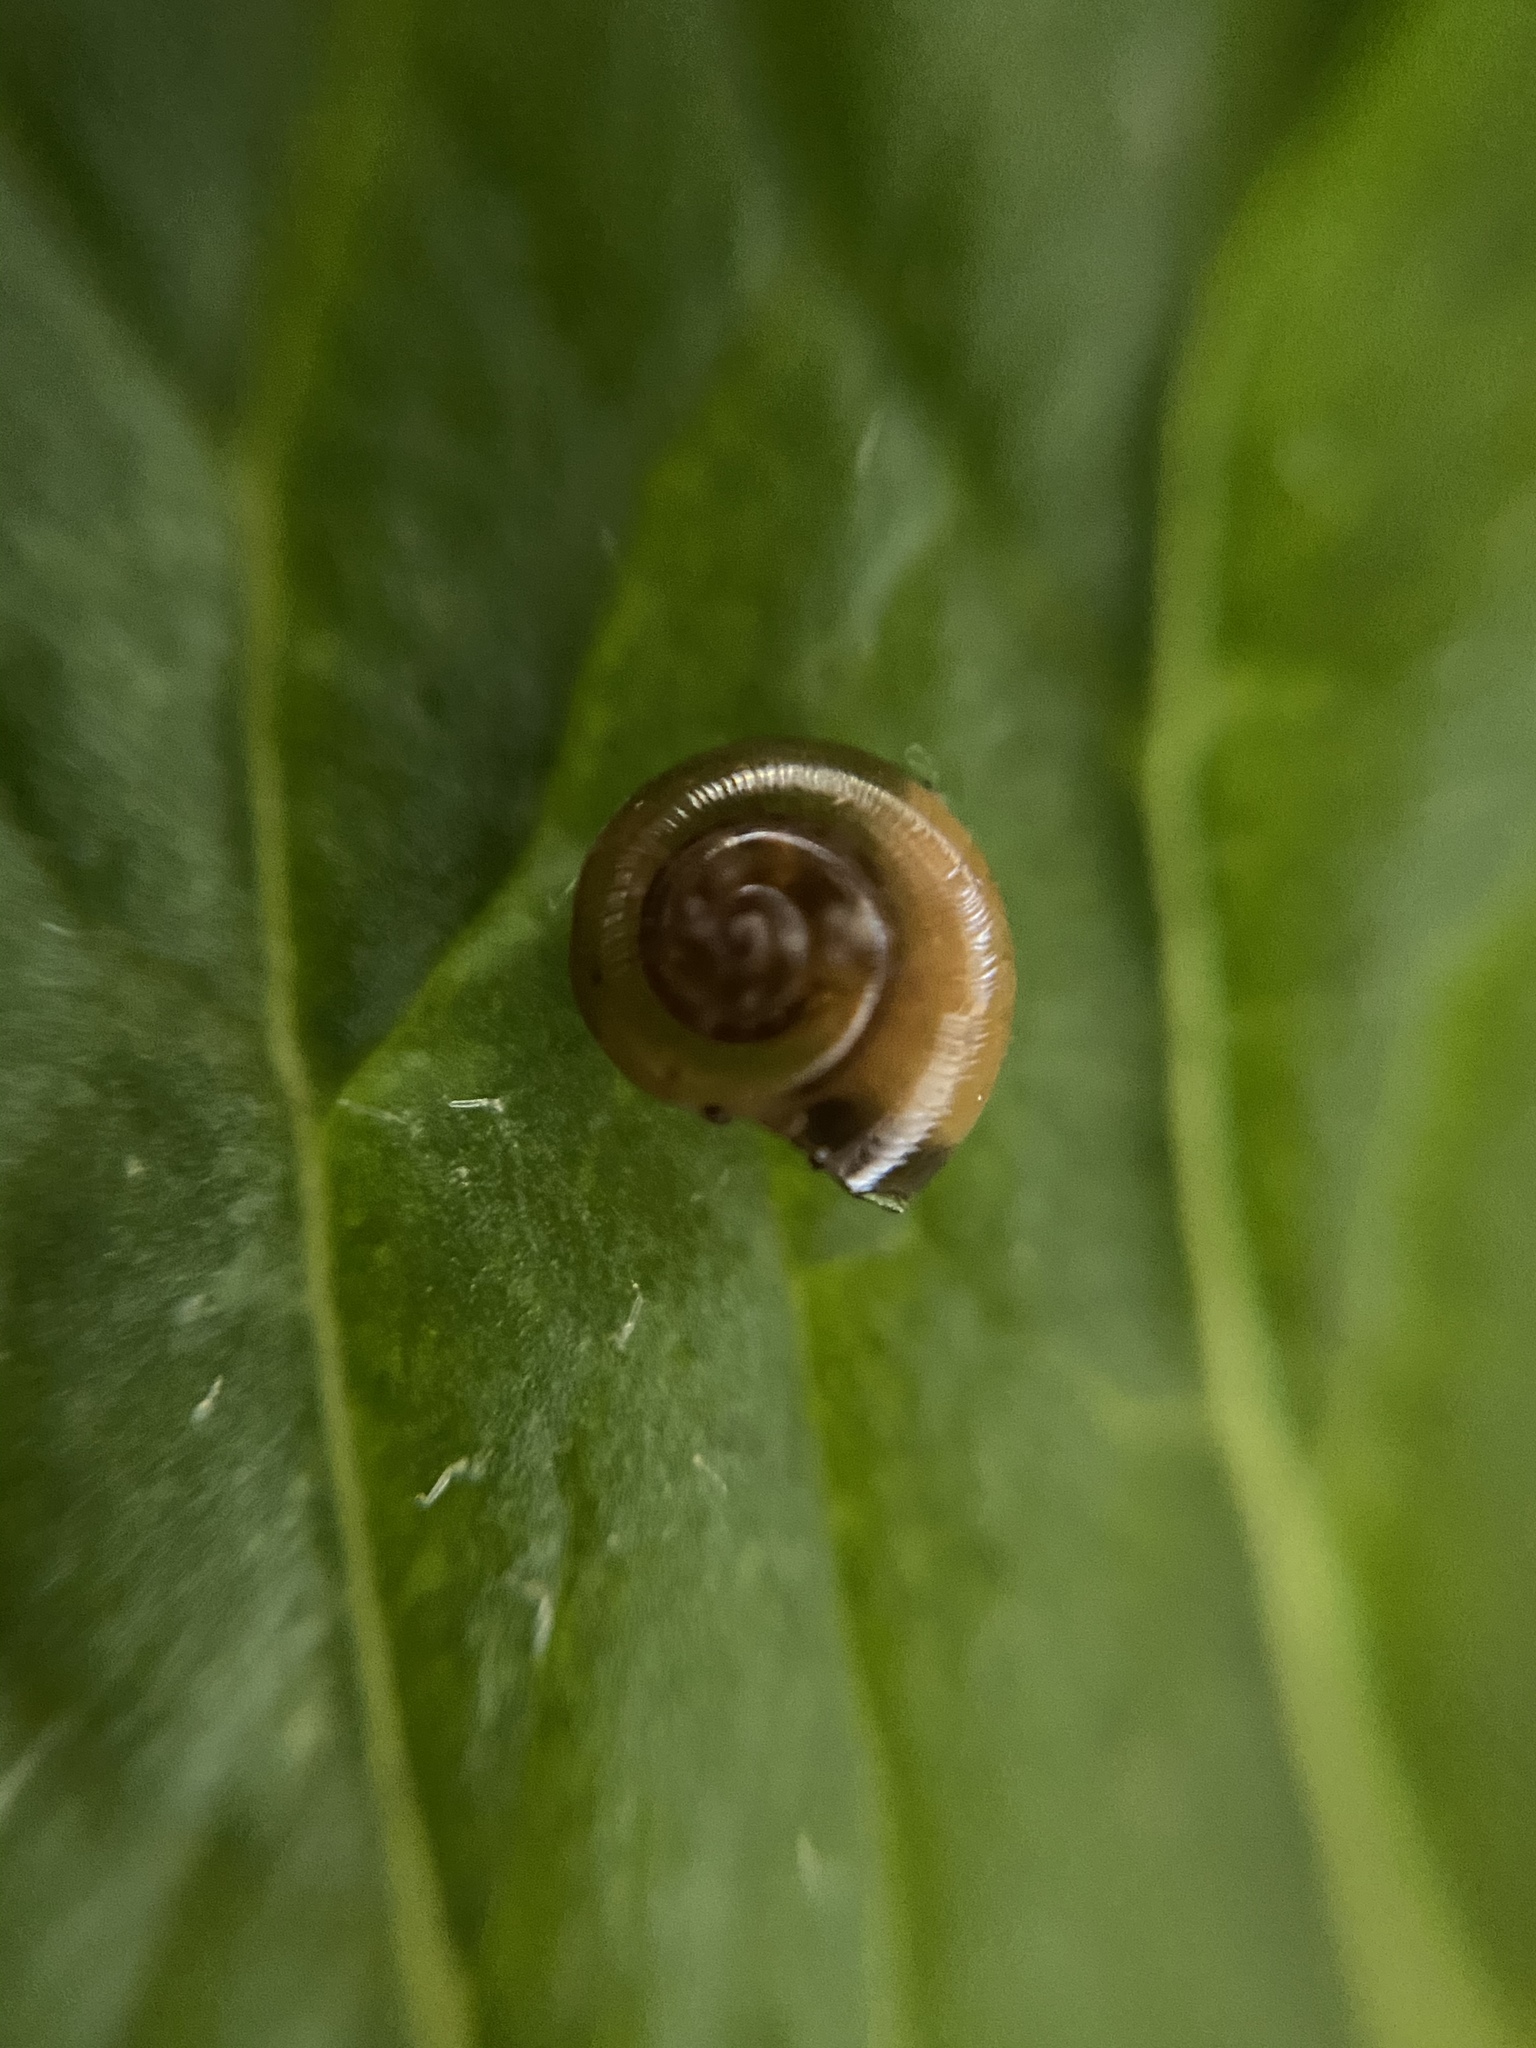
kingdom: Animalia
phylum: Mollusca
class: Gastropoda
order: Stylommatophora
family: Gastrodontidae
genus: Zonitoides
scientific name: Zonitoides arboreus
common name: Quick gloss
